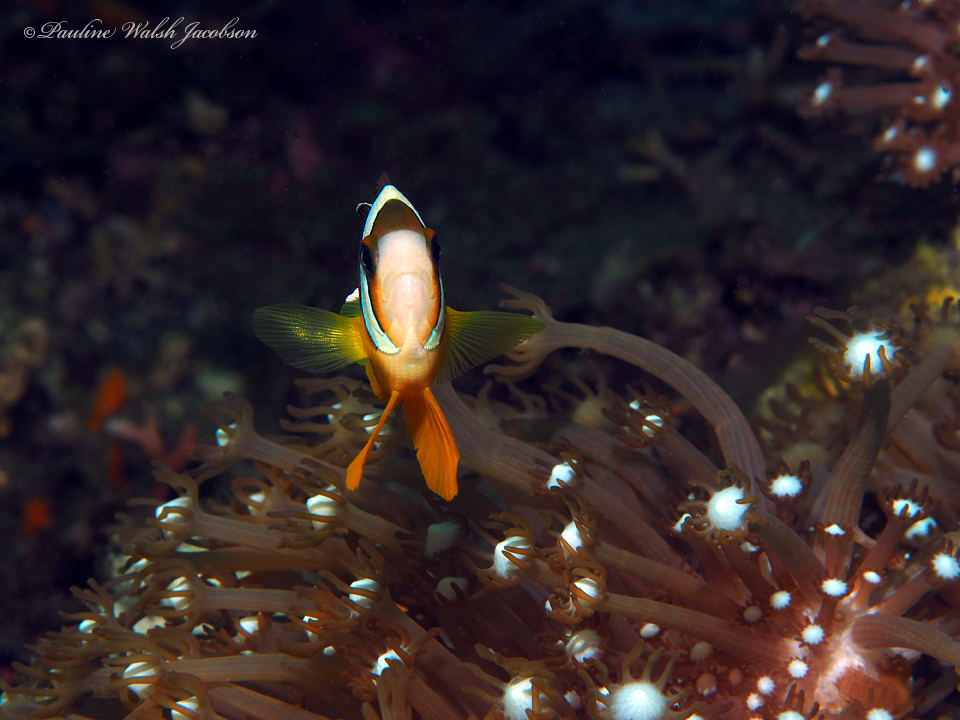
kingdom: Animalia
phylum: Chordata
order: Perciformes
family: Pomacentridae
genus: Amphiprion
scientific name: Amphiprion clarkii
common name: Clark's anemonefish
